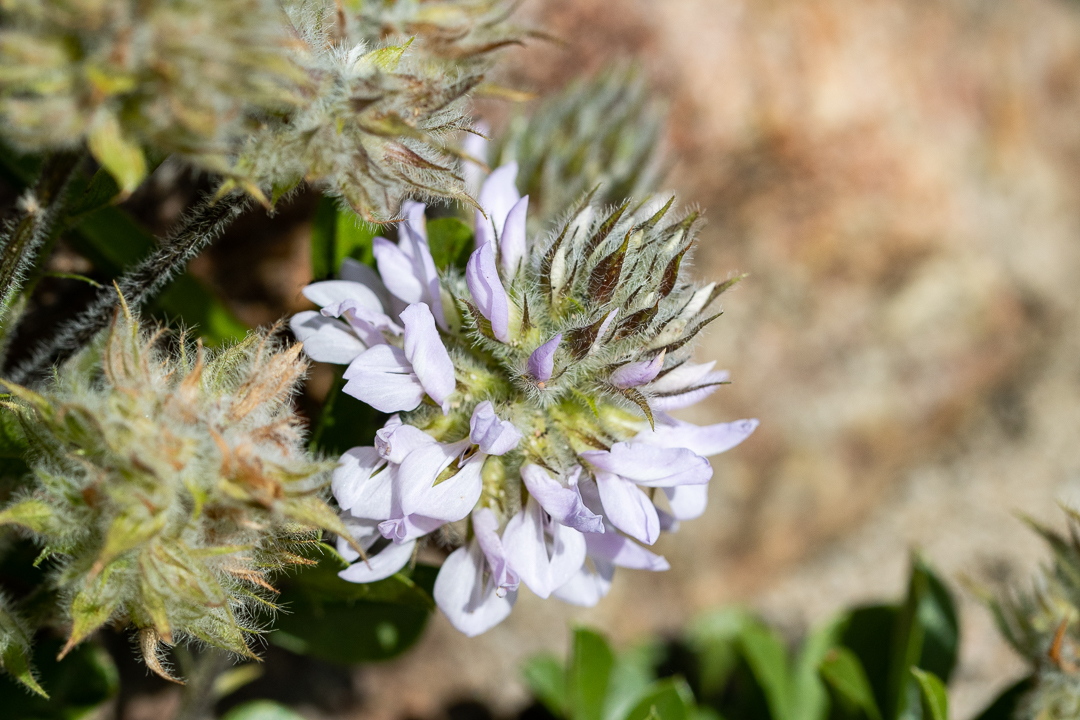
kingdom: Plantae
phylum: Tracheophyta
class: Magnoliopsida
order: Fabales
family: Fabaceae
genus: Psoralea
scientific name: Psoralea zeyheri
